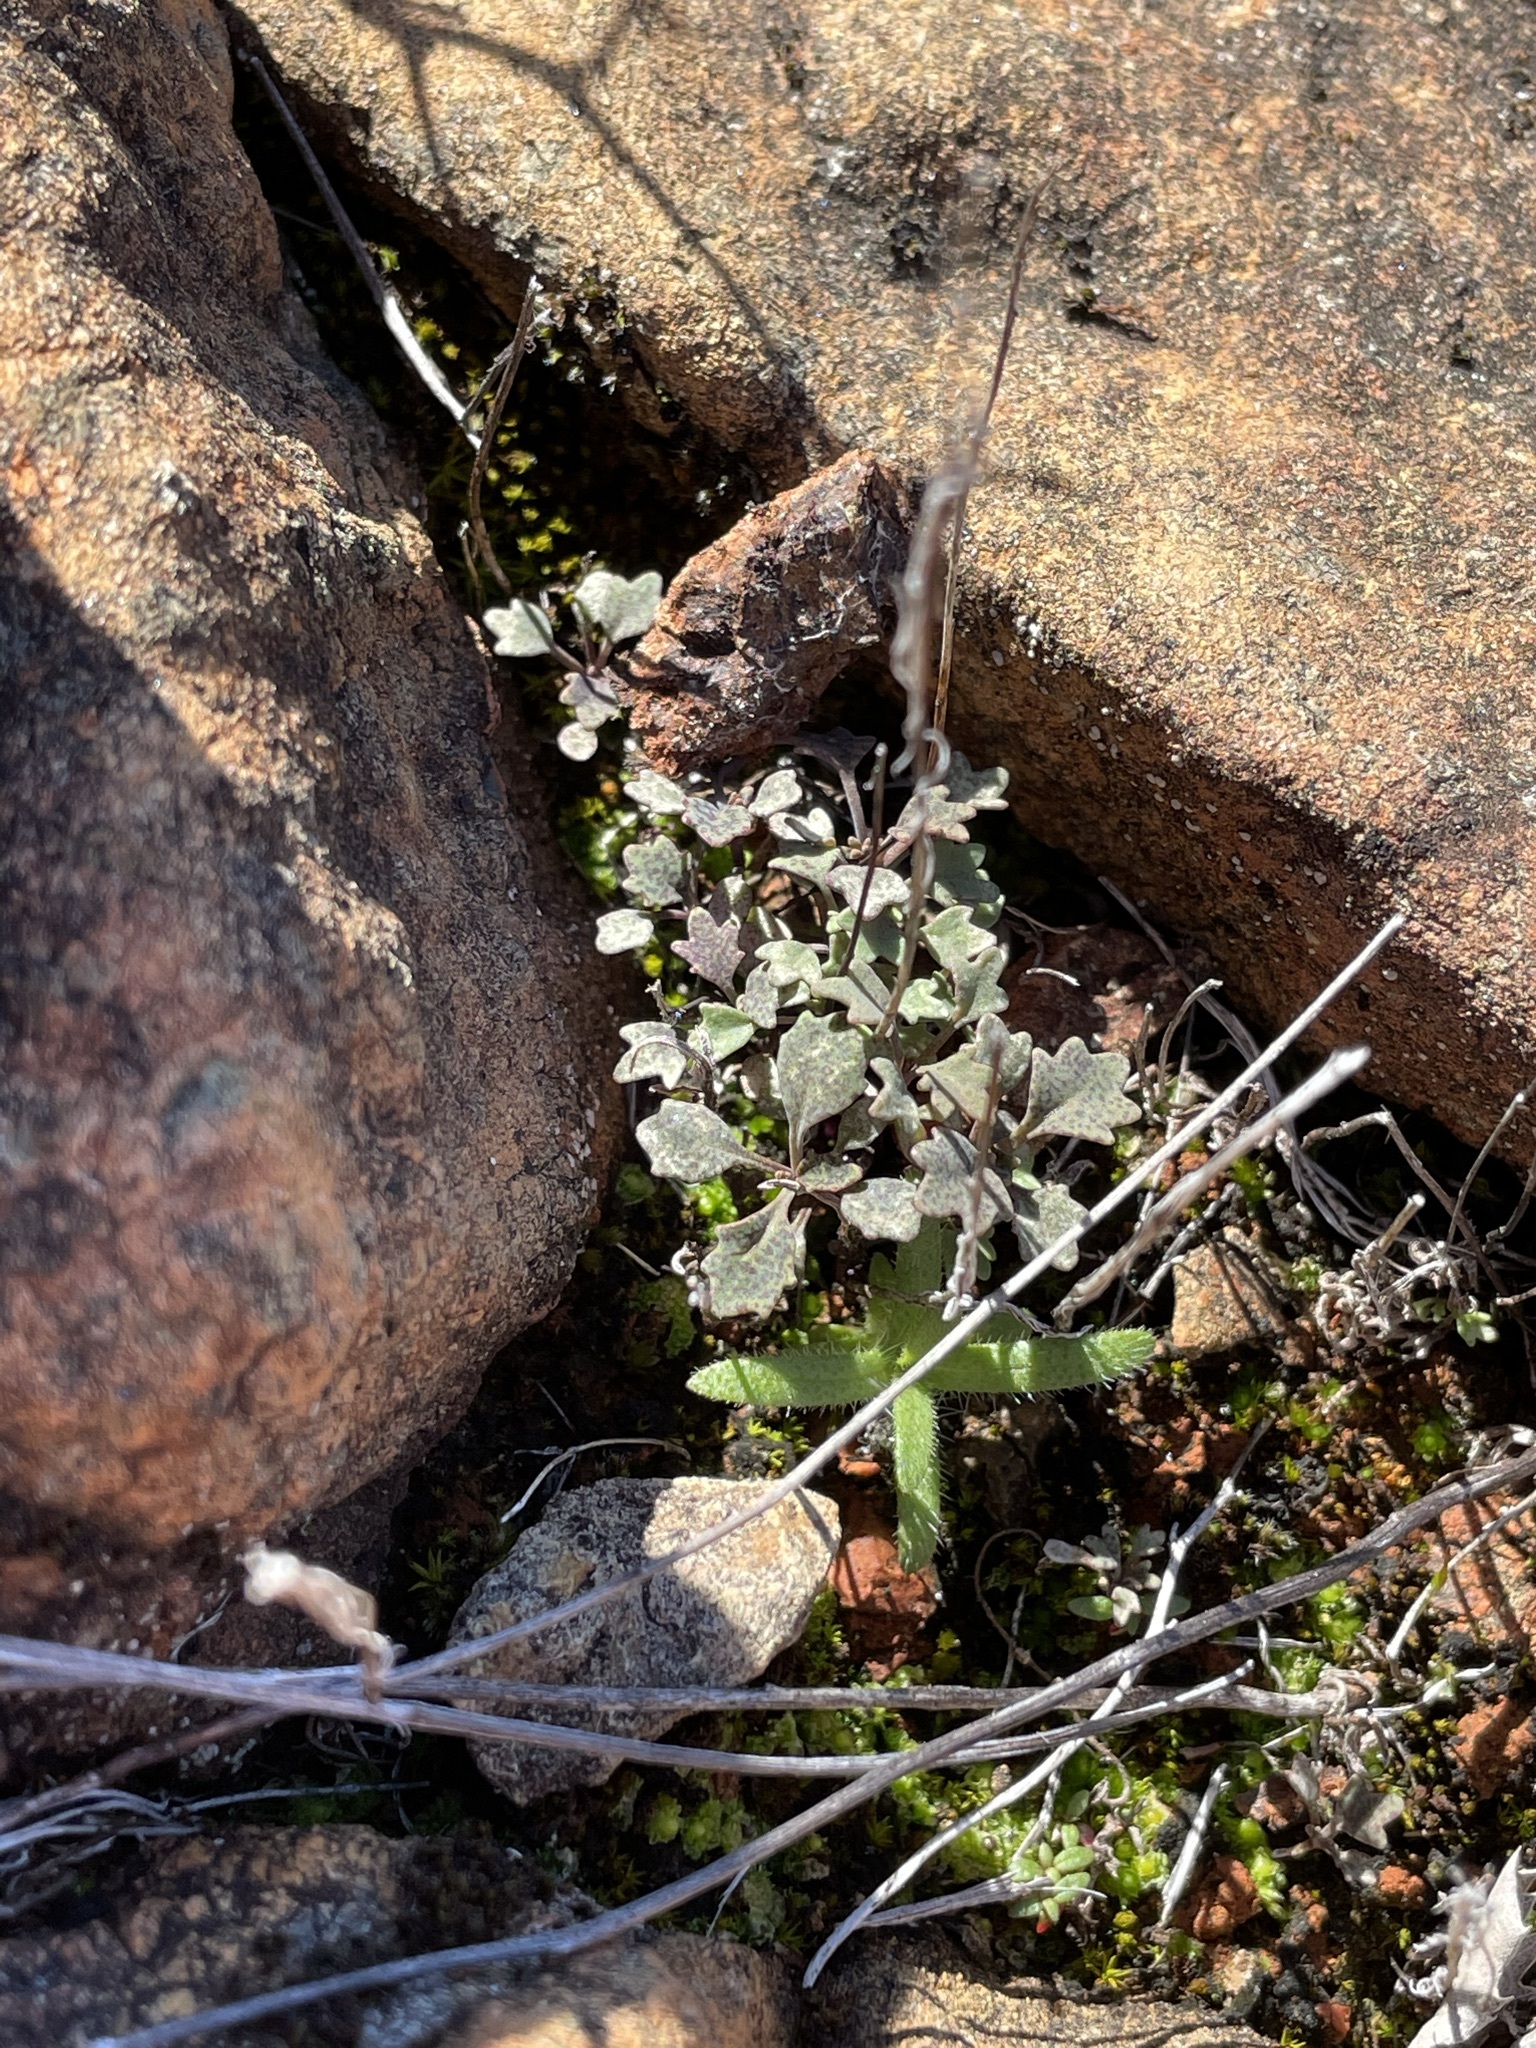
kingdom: Plantae
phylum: Tracheophyta
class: Magnoliopsida
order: Brassicales
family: Brassicaceae
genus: Streptanthus
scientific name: Streptanthus barbiger
